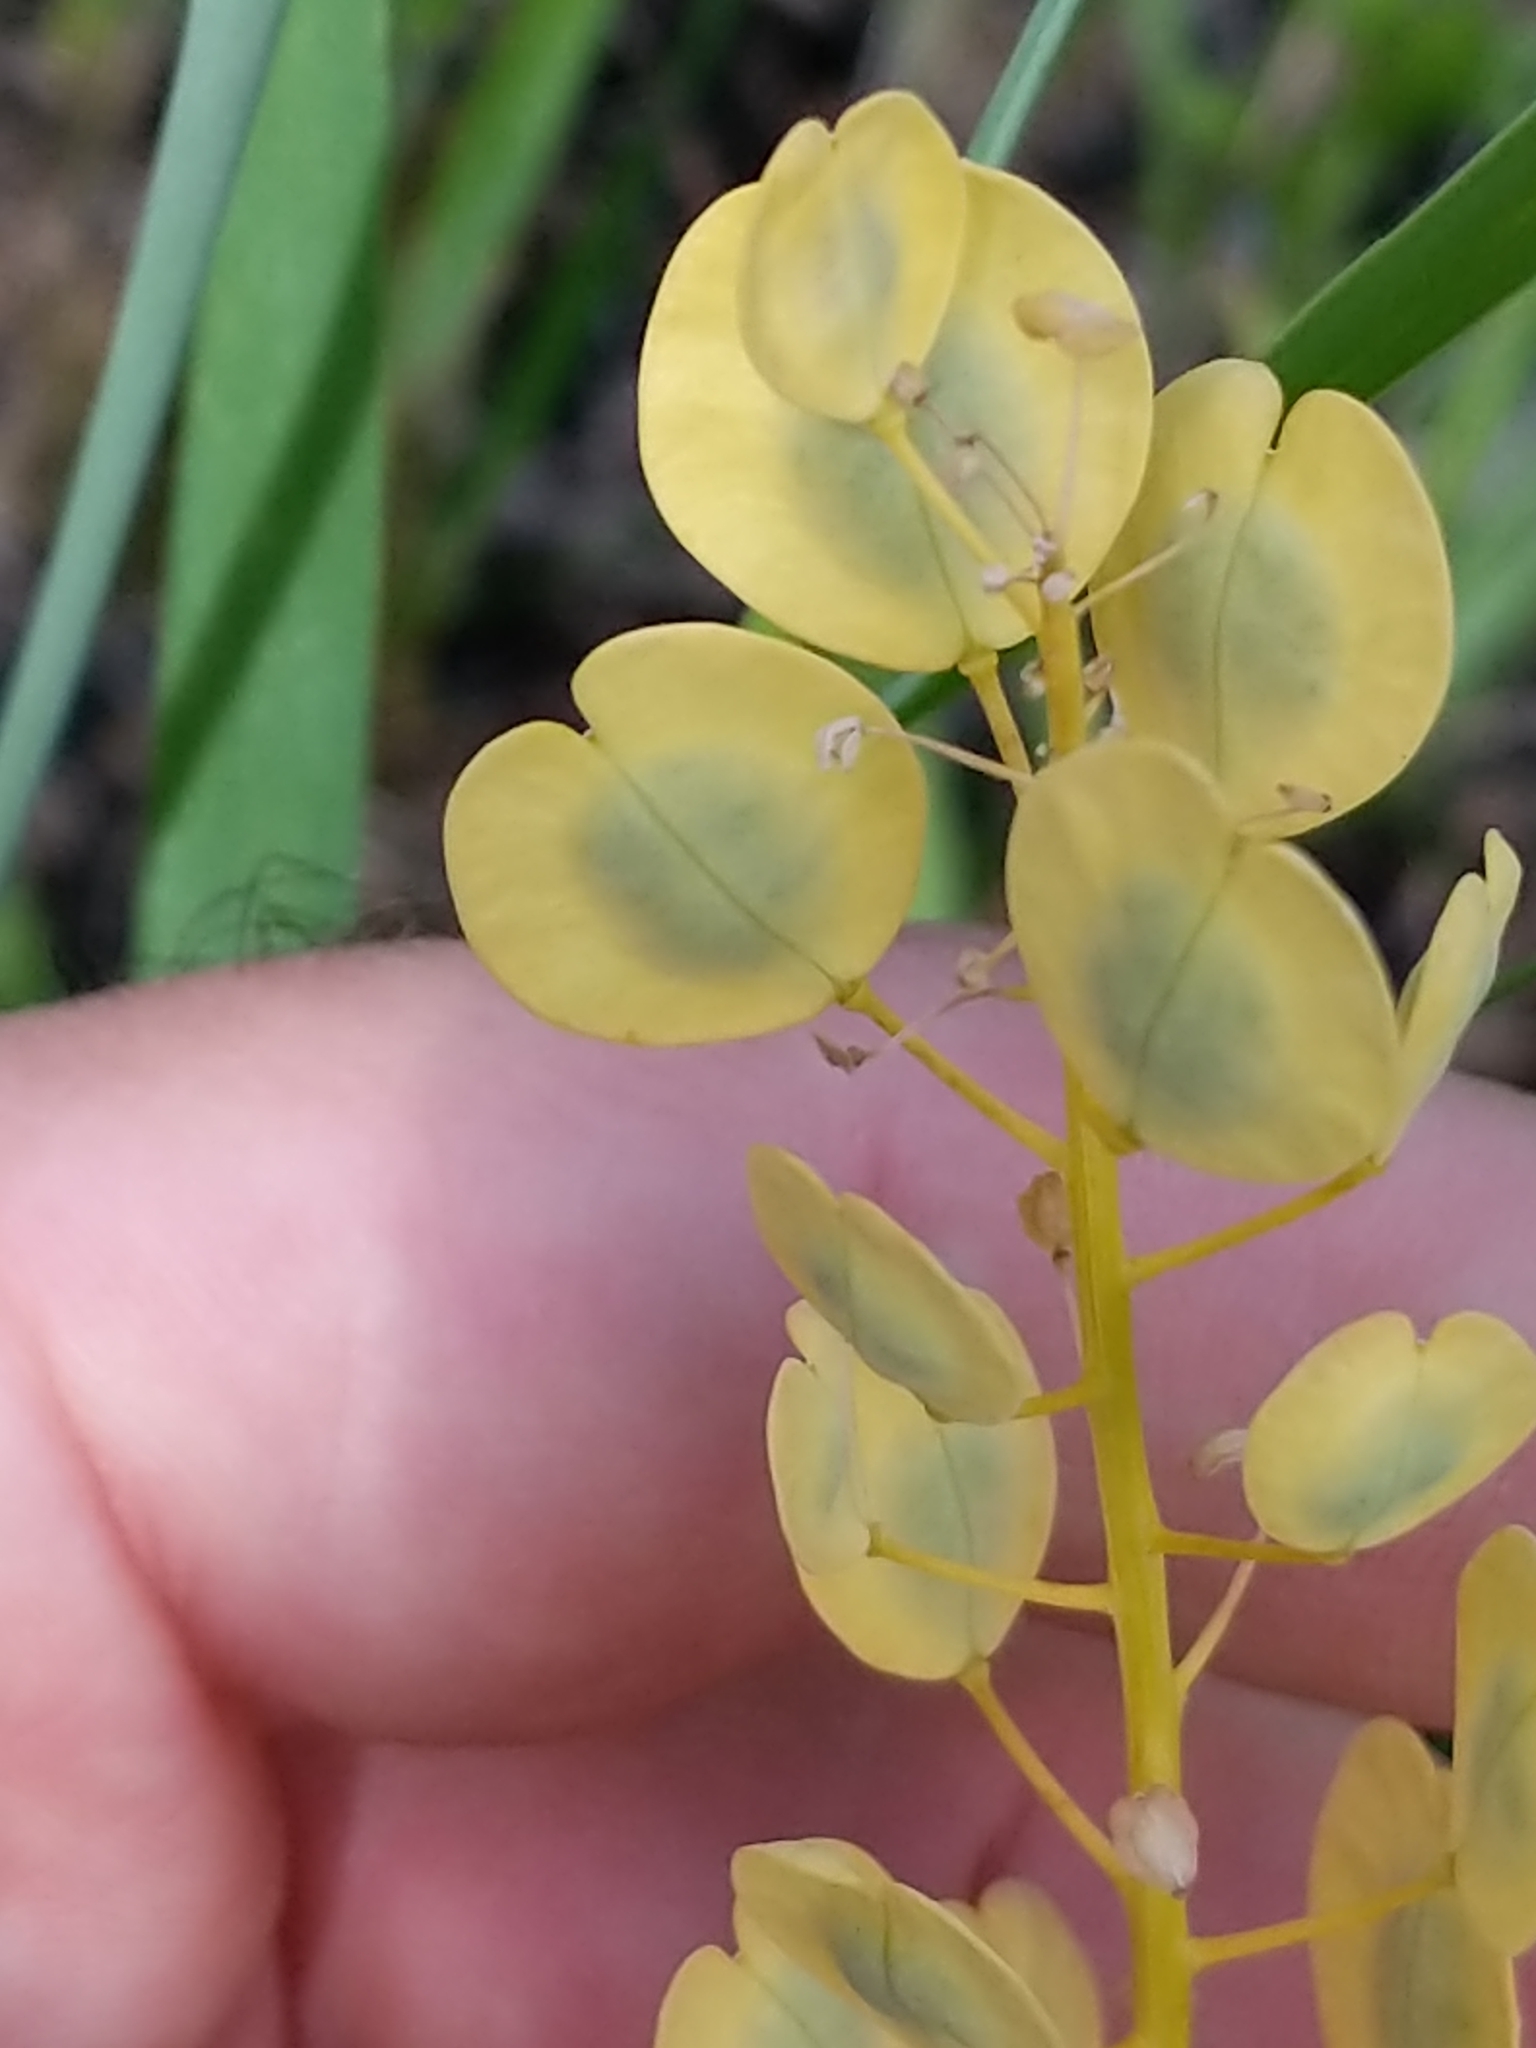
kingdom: Plantae
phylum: Tracheophyta
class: Magnoliopsida
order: Brassicales
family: Brassicaceae
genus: Thlaspi
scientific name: Thlaspi arvense
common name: Field pennycress
